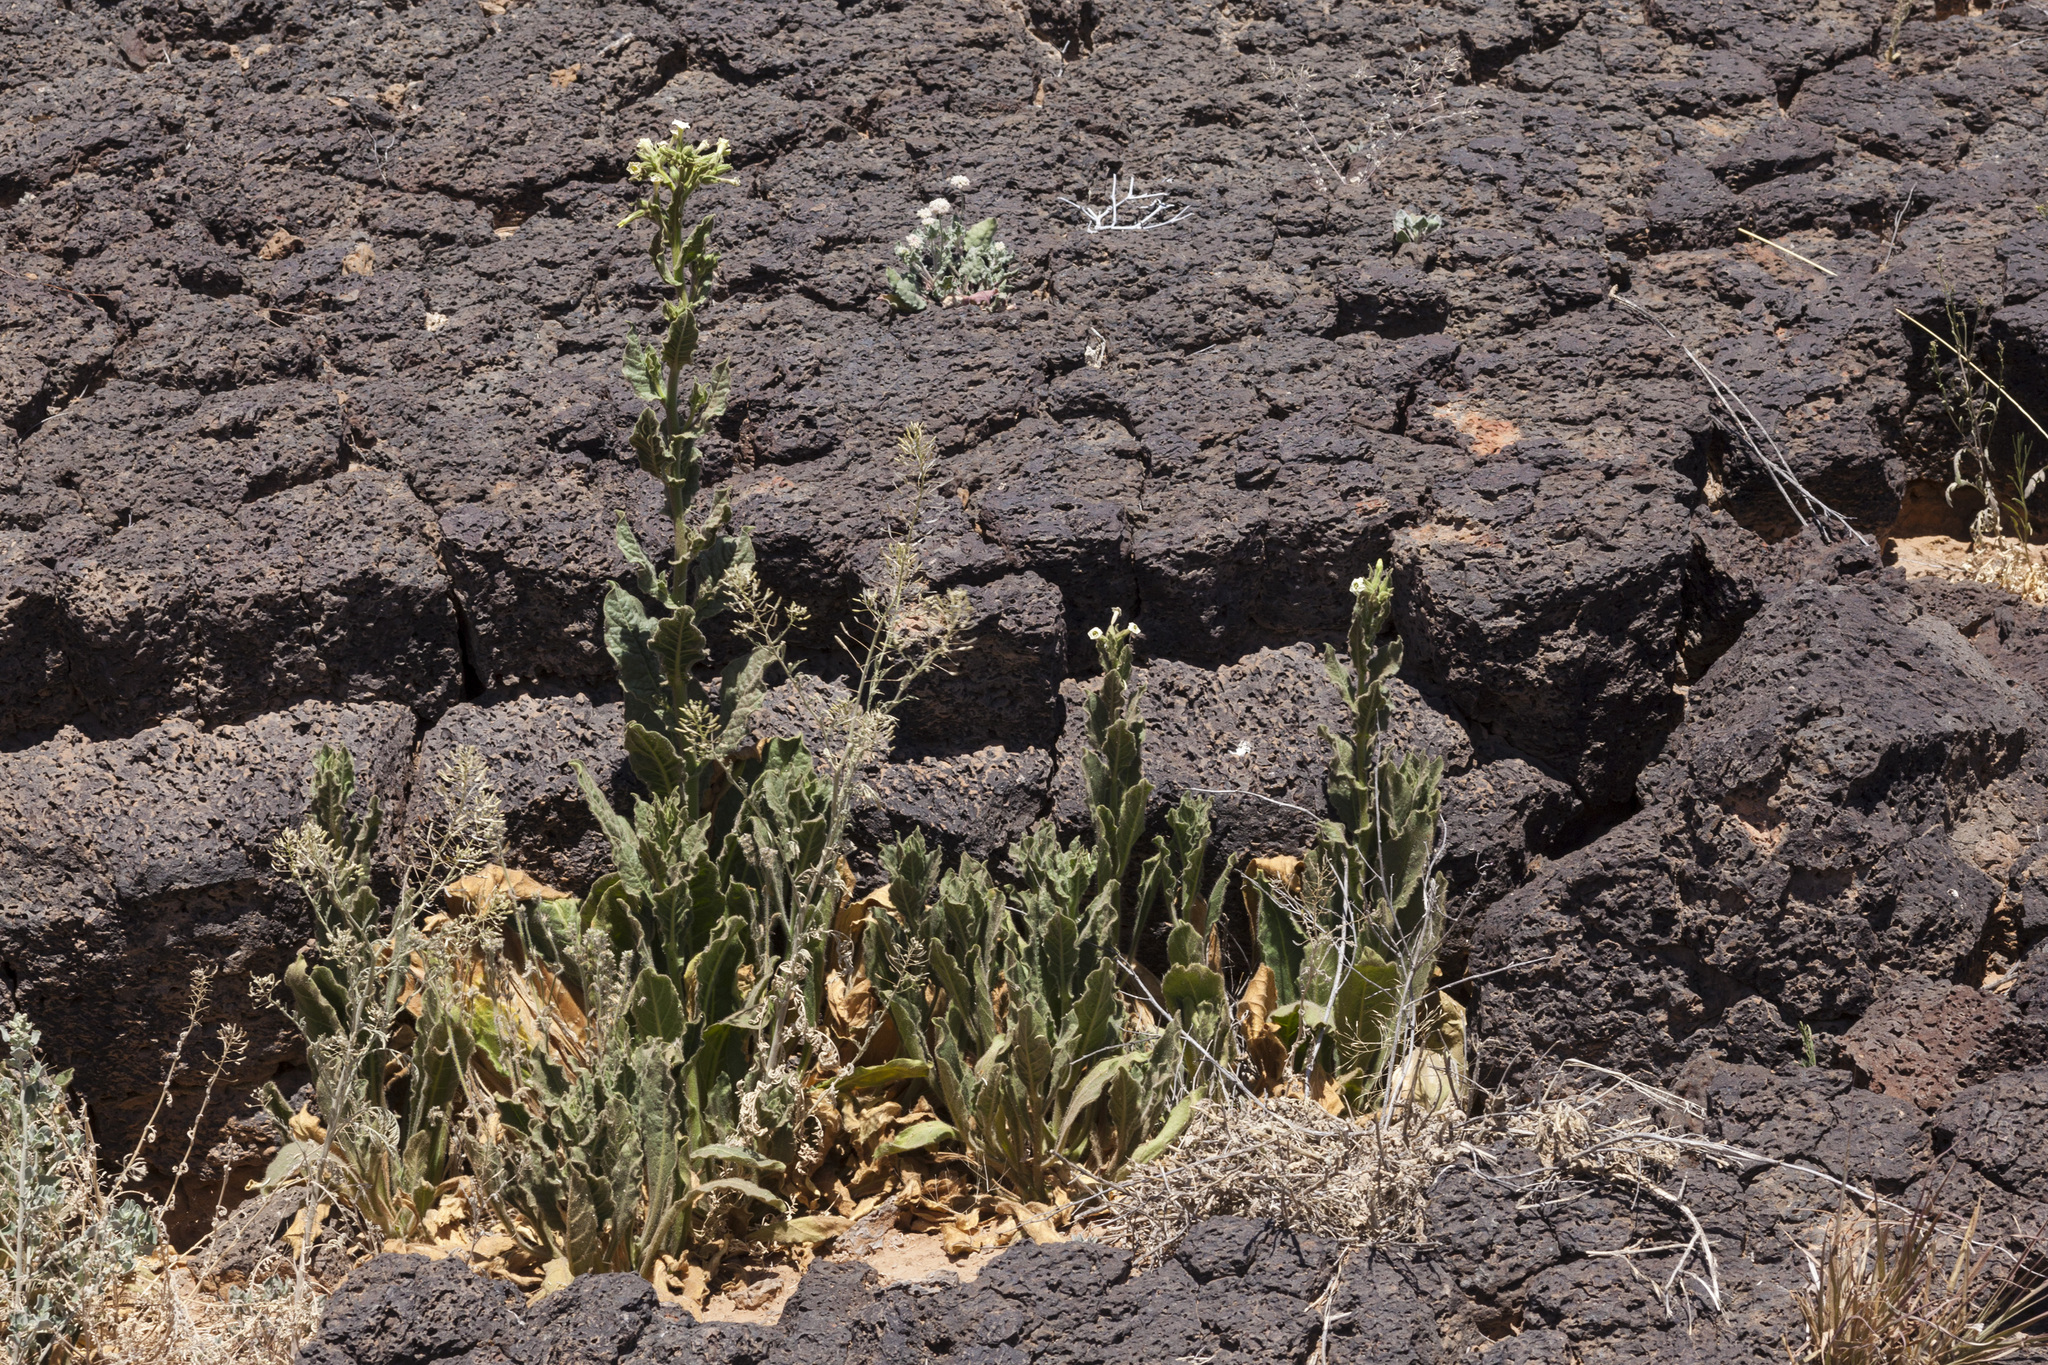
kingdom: Plantae
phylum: Tracheophyta
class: Magnoliopsida
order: Solanales
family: Solanaceae
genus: Nicotiana
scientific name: Nicotiana obtusifolia
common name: Desert tobacco
